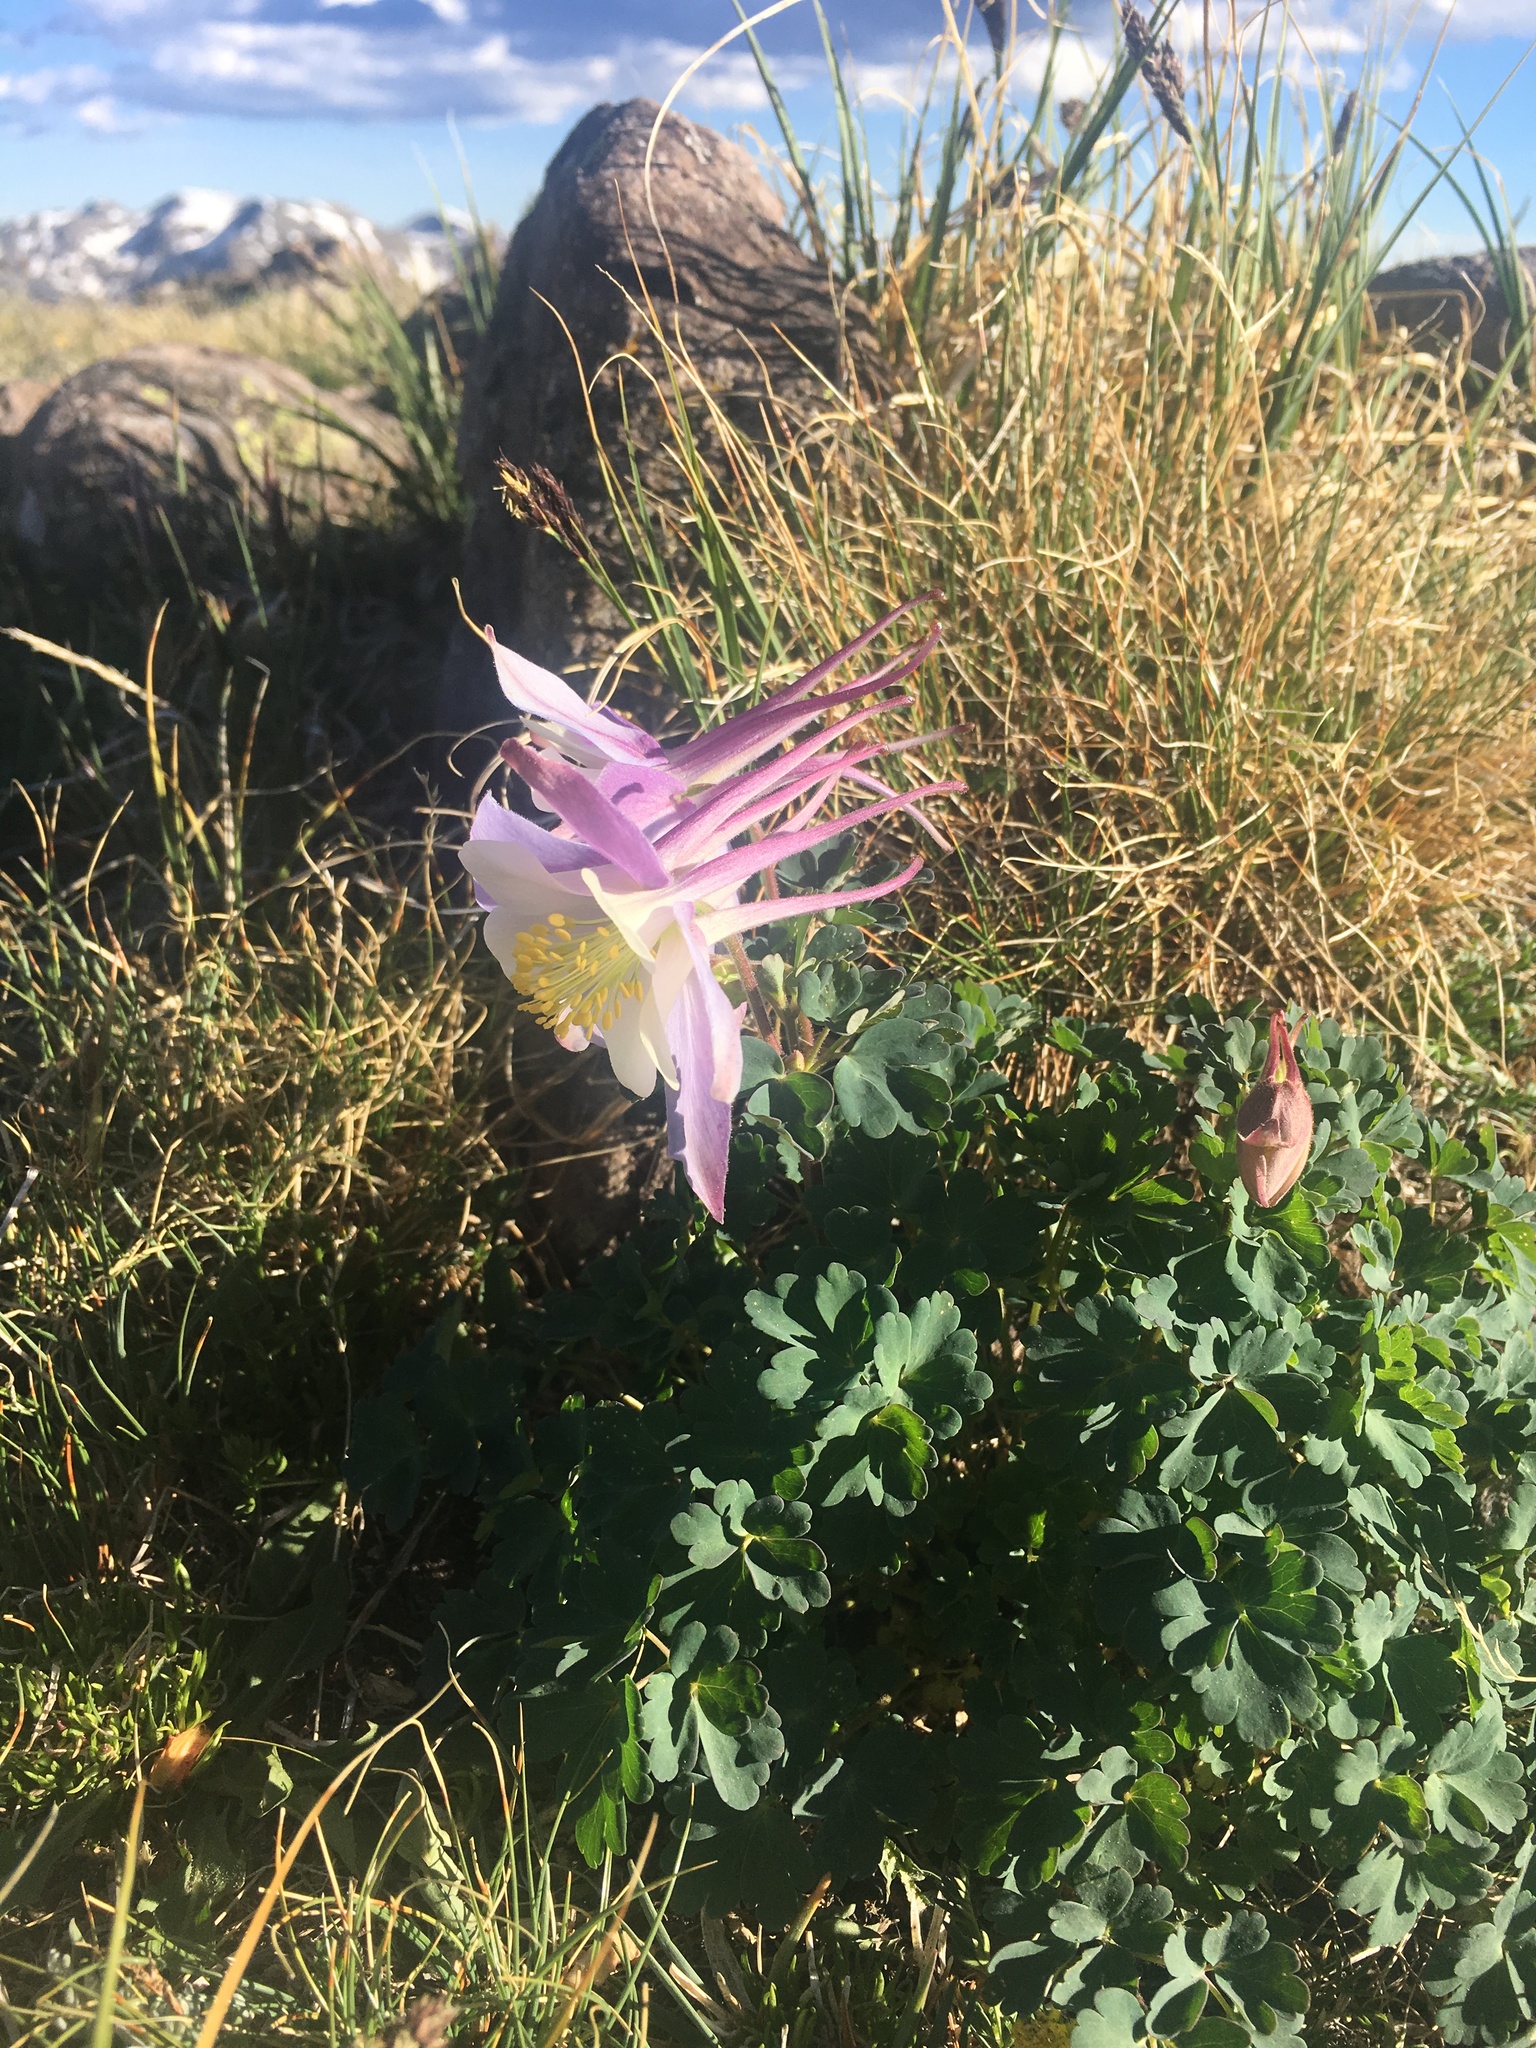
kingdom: Plantae
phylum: Tracheophyta
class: Magnoliopsida
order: Ranunculales
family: Ranunculaceae
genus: Aquilegia
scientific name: Aquilegia coerulea
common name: Rocky mountain columbine
